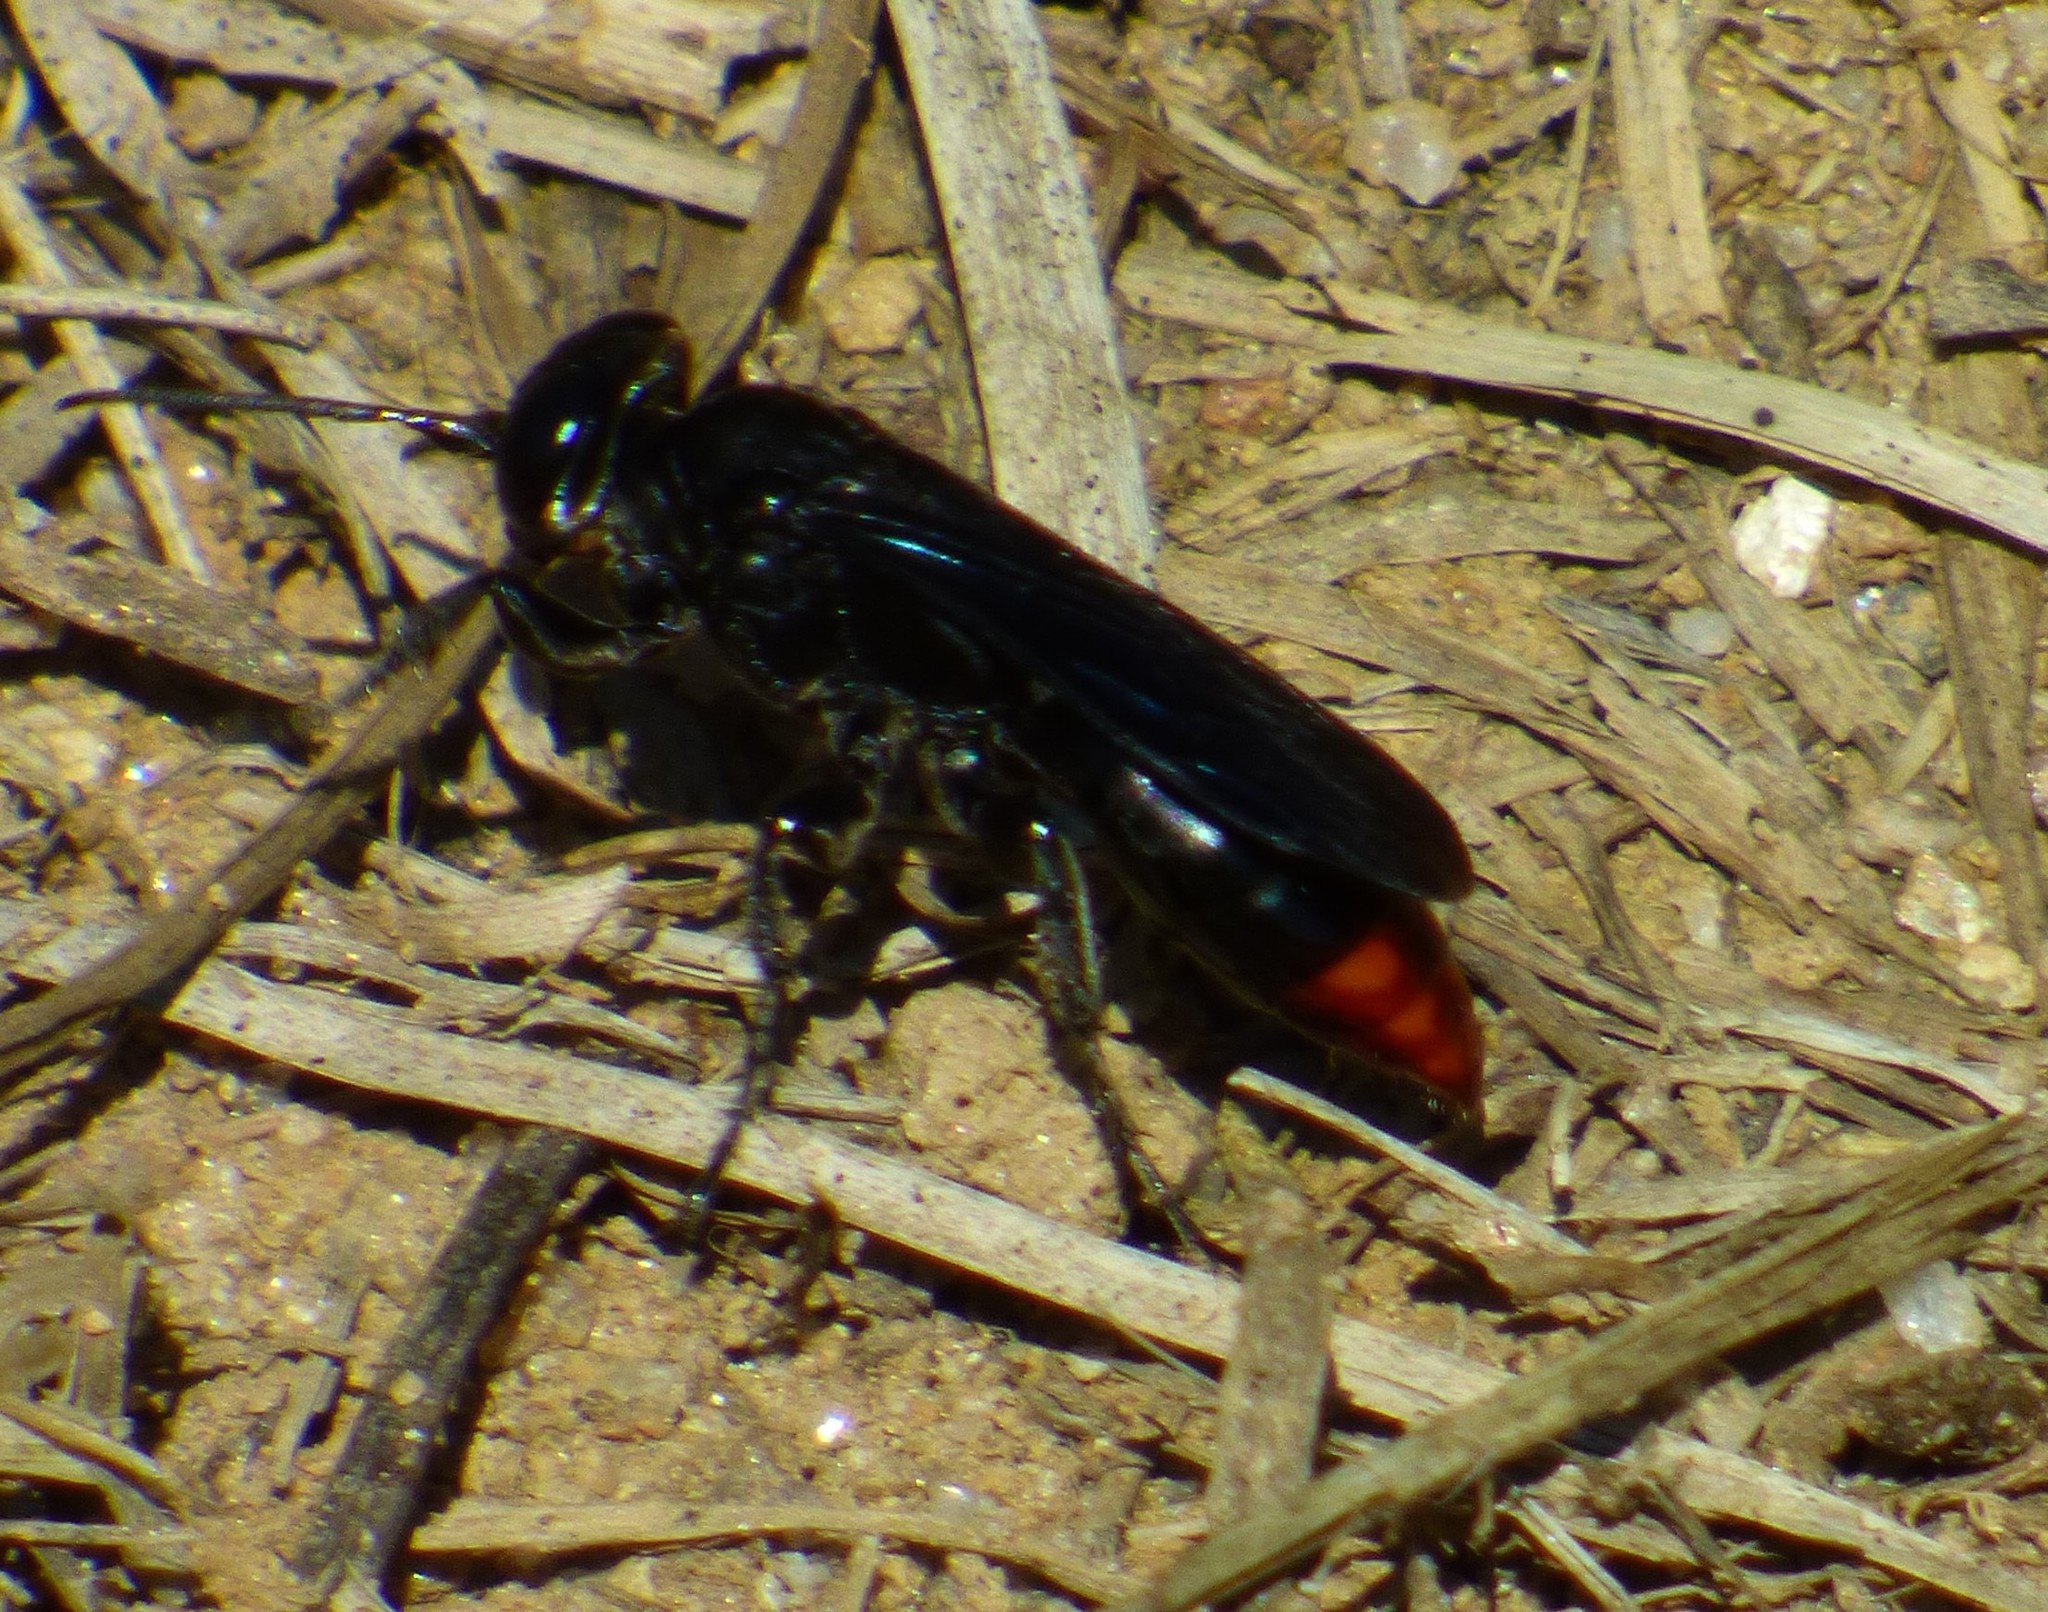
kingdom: Animalia
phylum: Arthropoda
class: Insecta
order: Hymenoptera
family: Crabronidae
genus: Larra
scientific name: Larra analis
